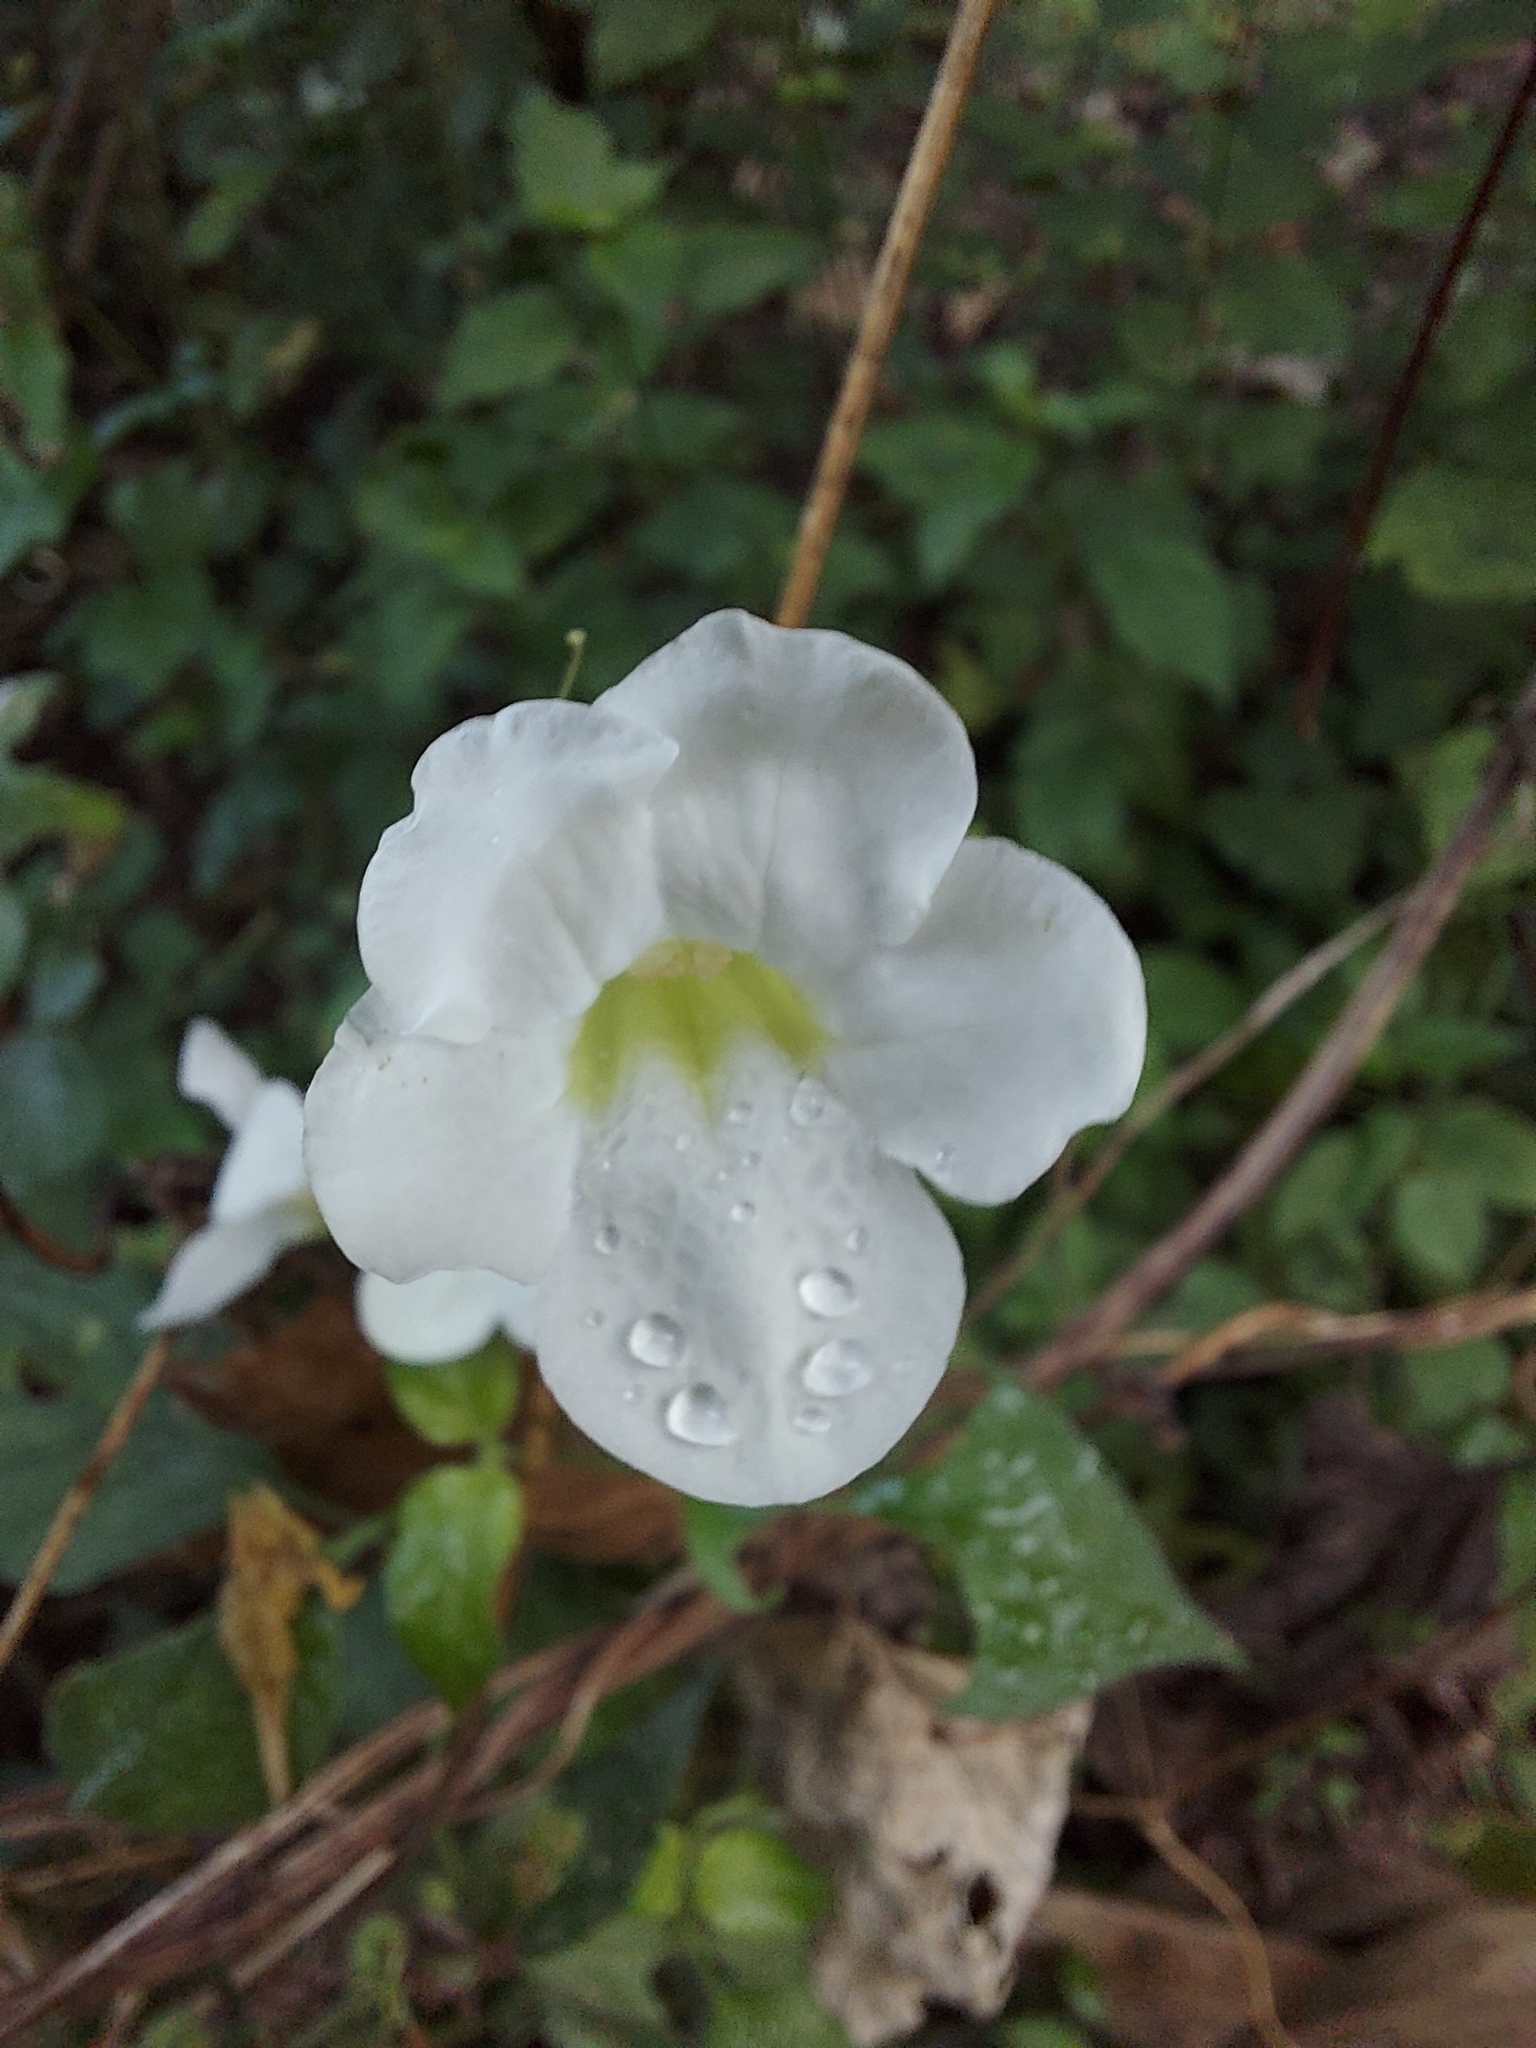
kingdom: Plantae
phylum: Tracheophyta
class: Magnoliopsida
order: Lamiales
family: Acanthaceae
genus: Asystasia
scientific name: Asystasia gangetica
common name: Chinese violet
